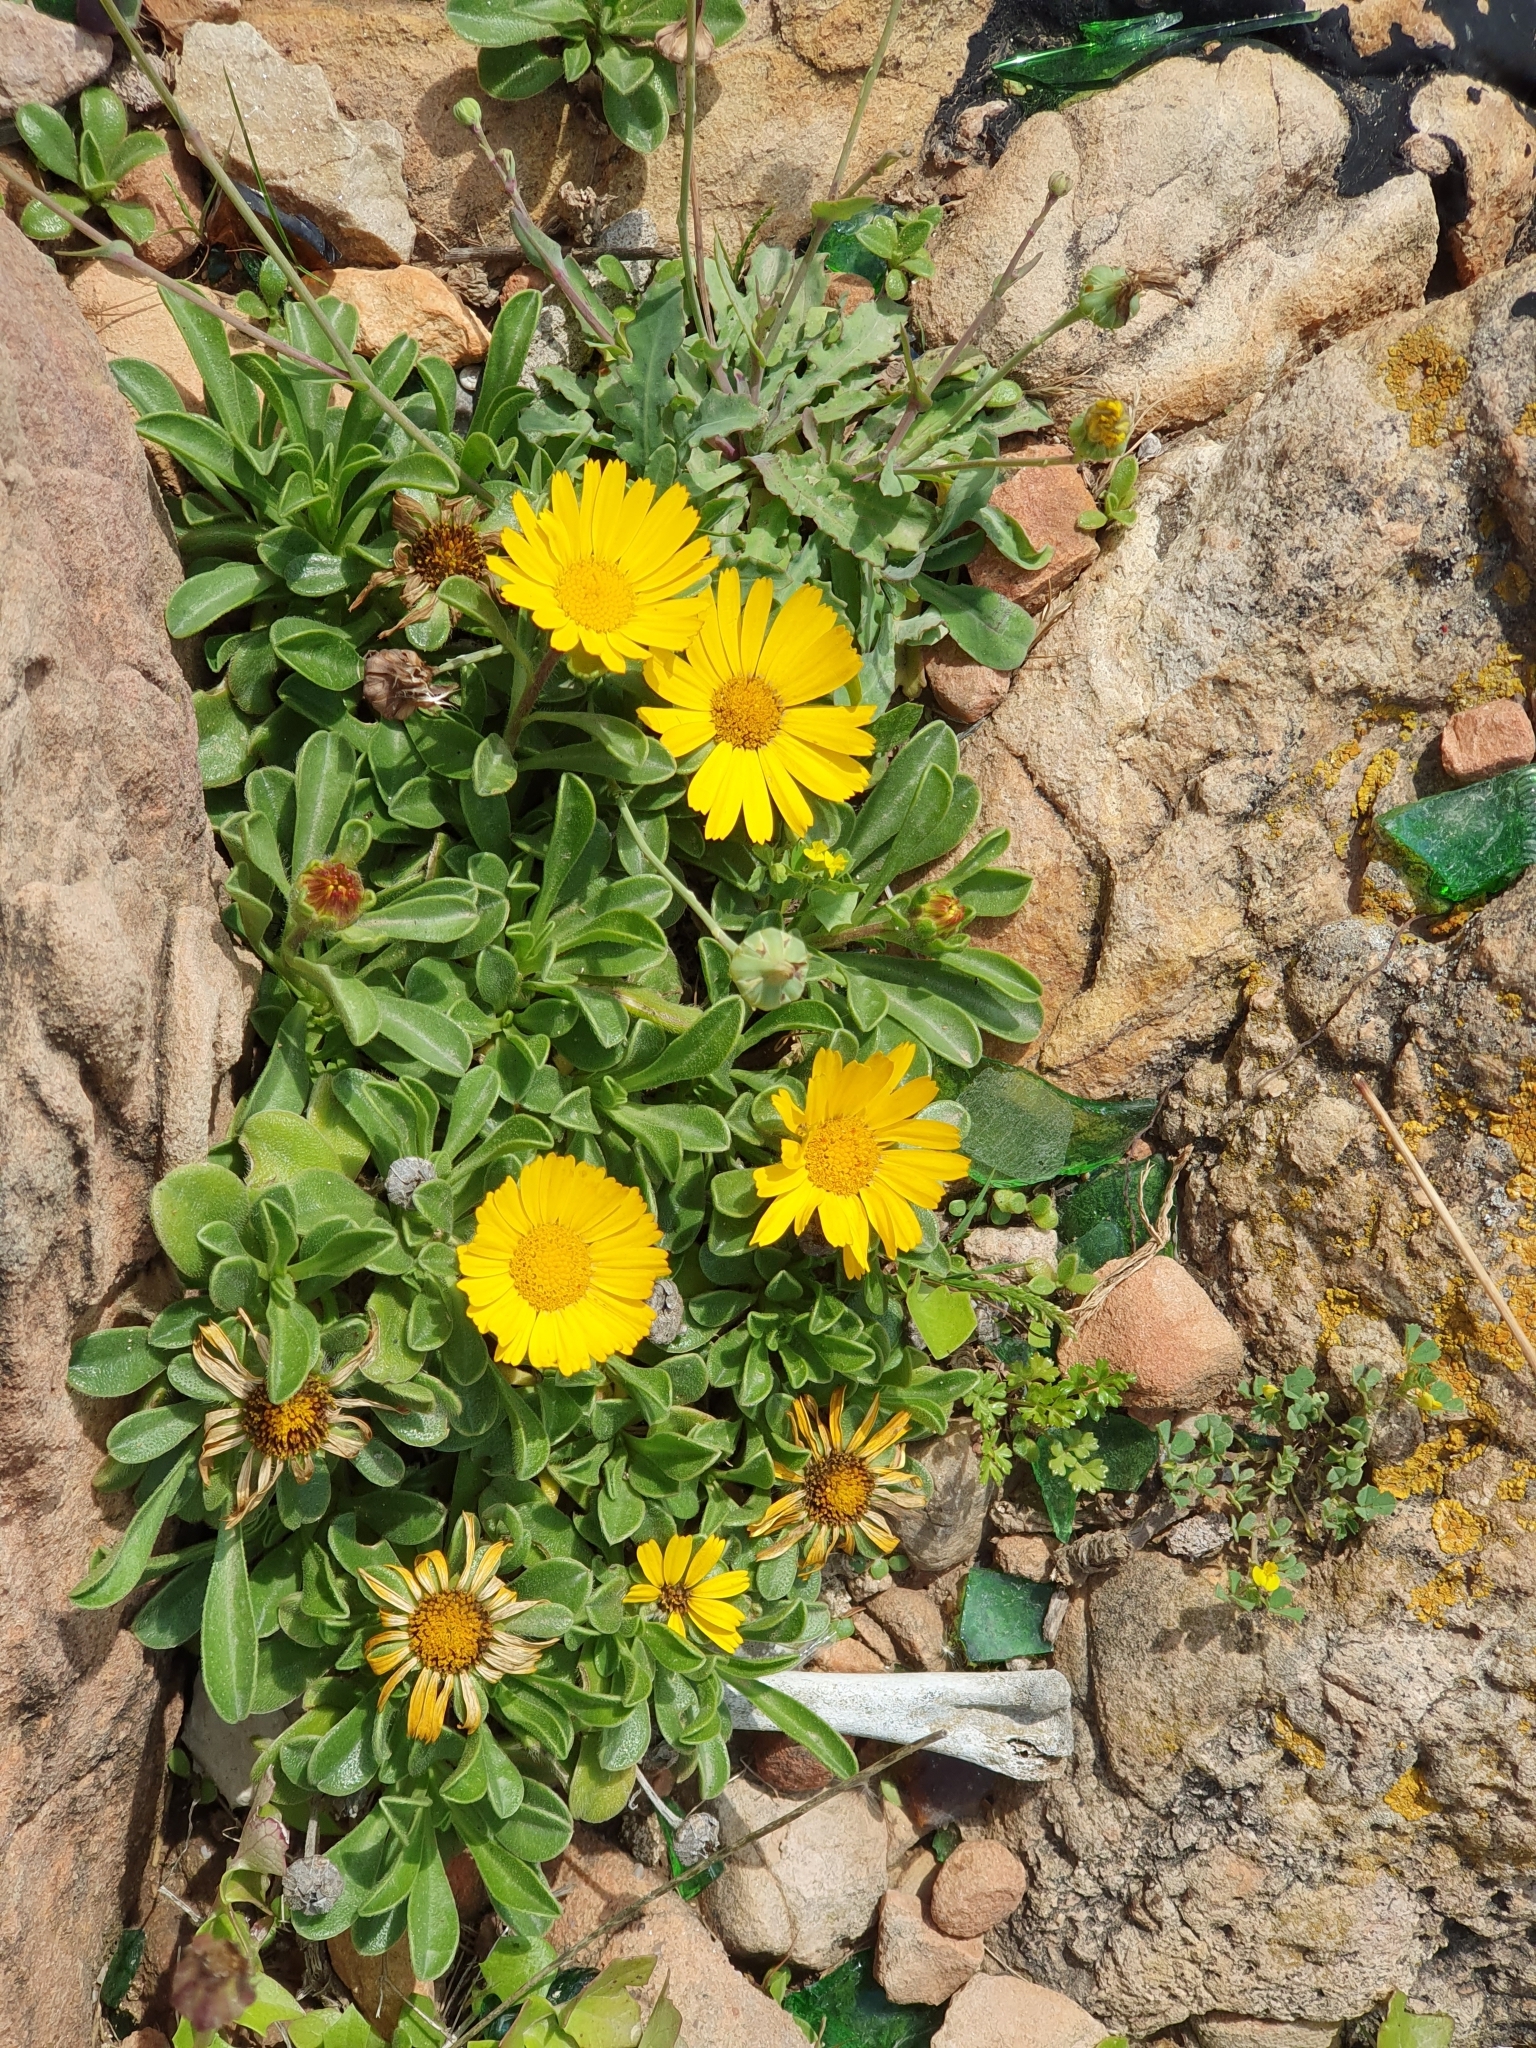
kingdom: Plantae
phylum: Tracheophyta
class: Magnoliopsida
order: Asterales
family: Asteraceae
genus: Pallenis
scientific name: Pallenis maritima
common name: Golden coin daisy
